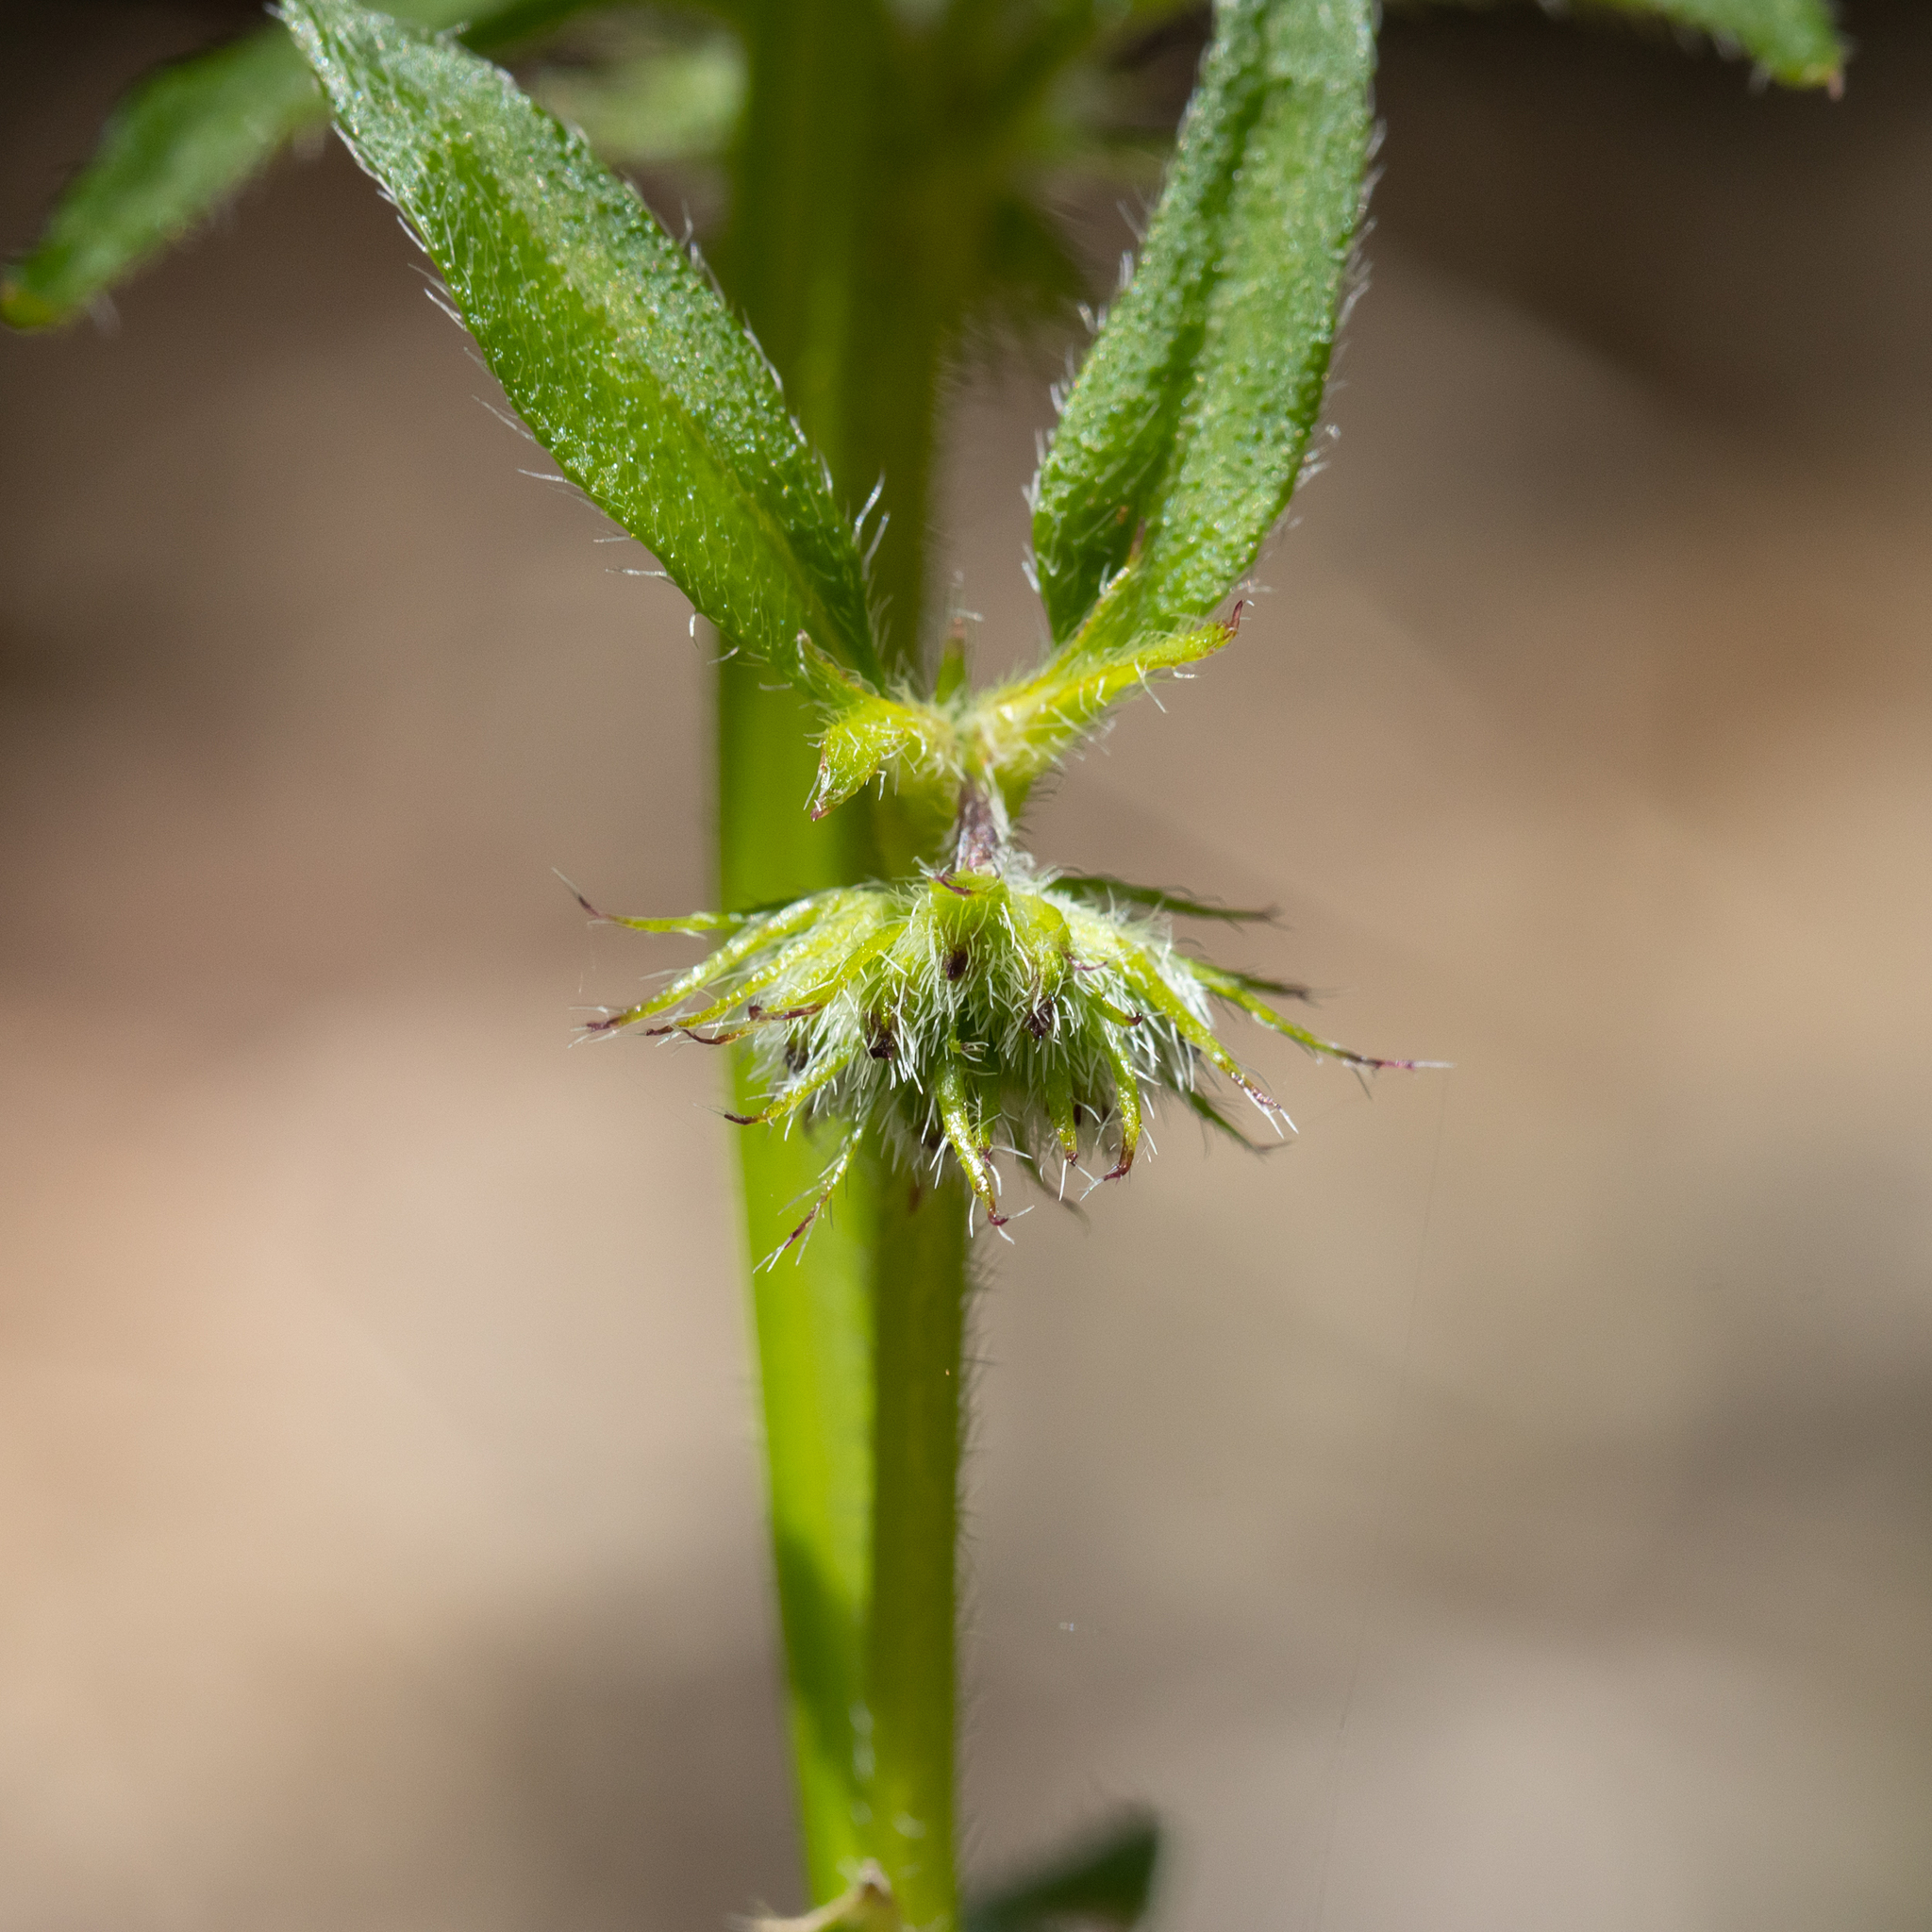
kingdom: Plantae
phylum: Tracheophyta
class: Magnoliopsida
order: Gentianales
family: Rubiaceae
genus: Opercularia
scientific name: Opercularia hispidula
